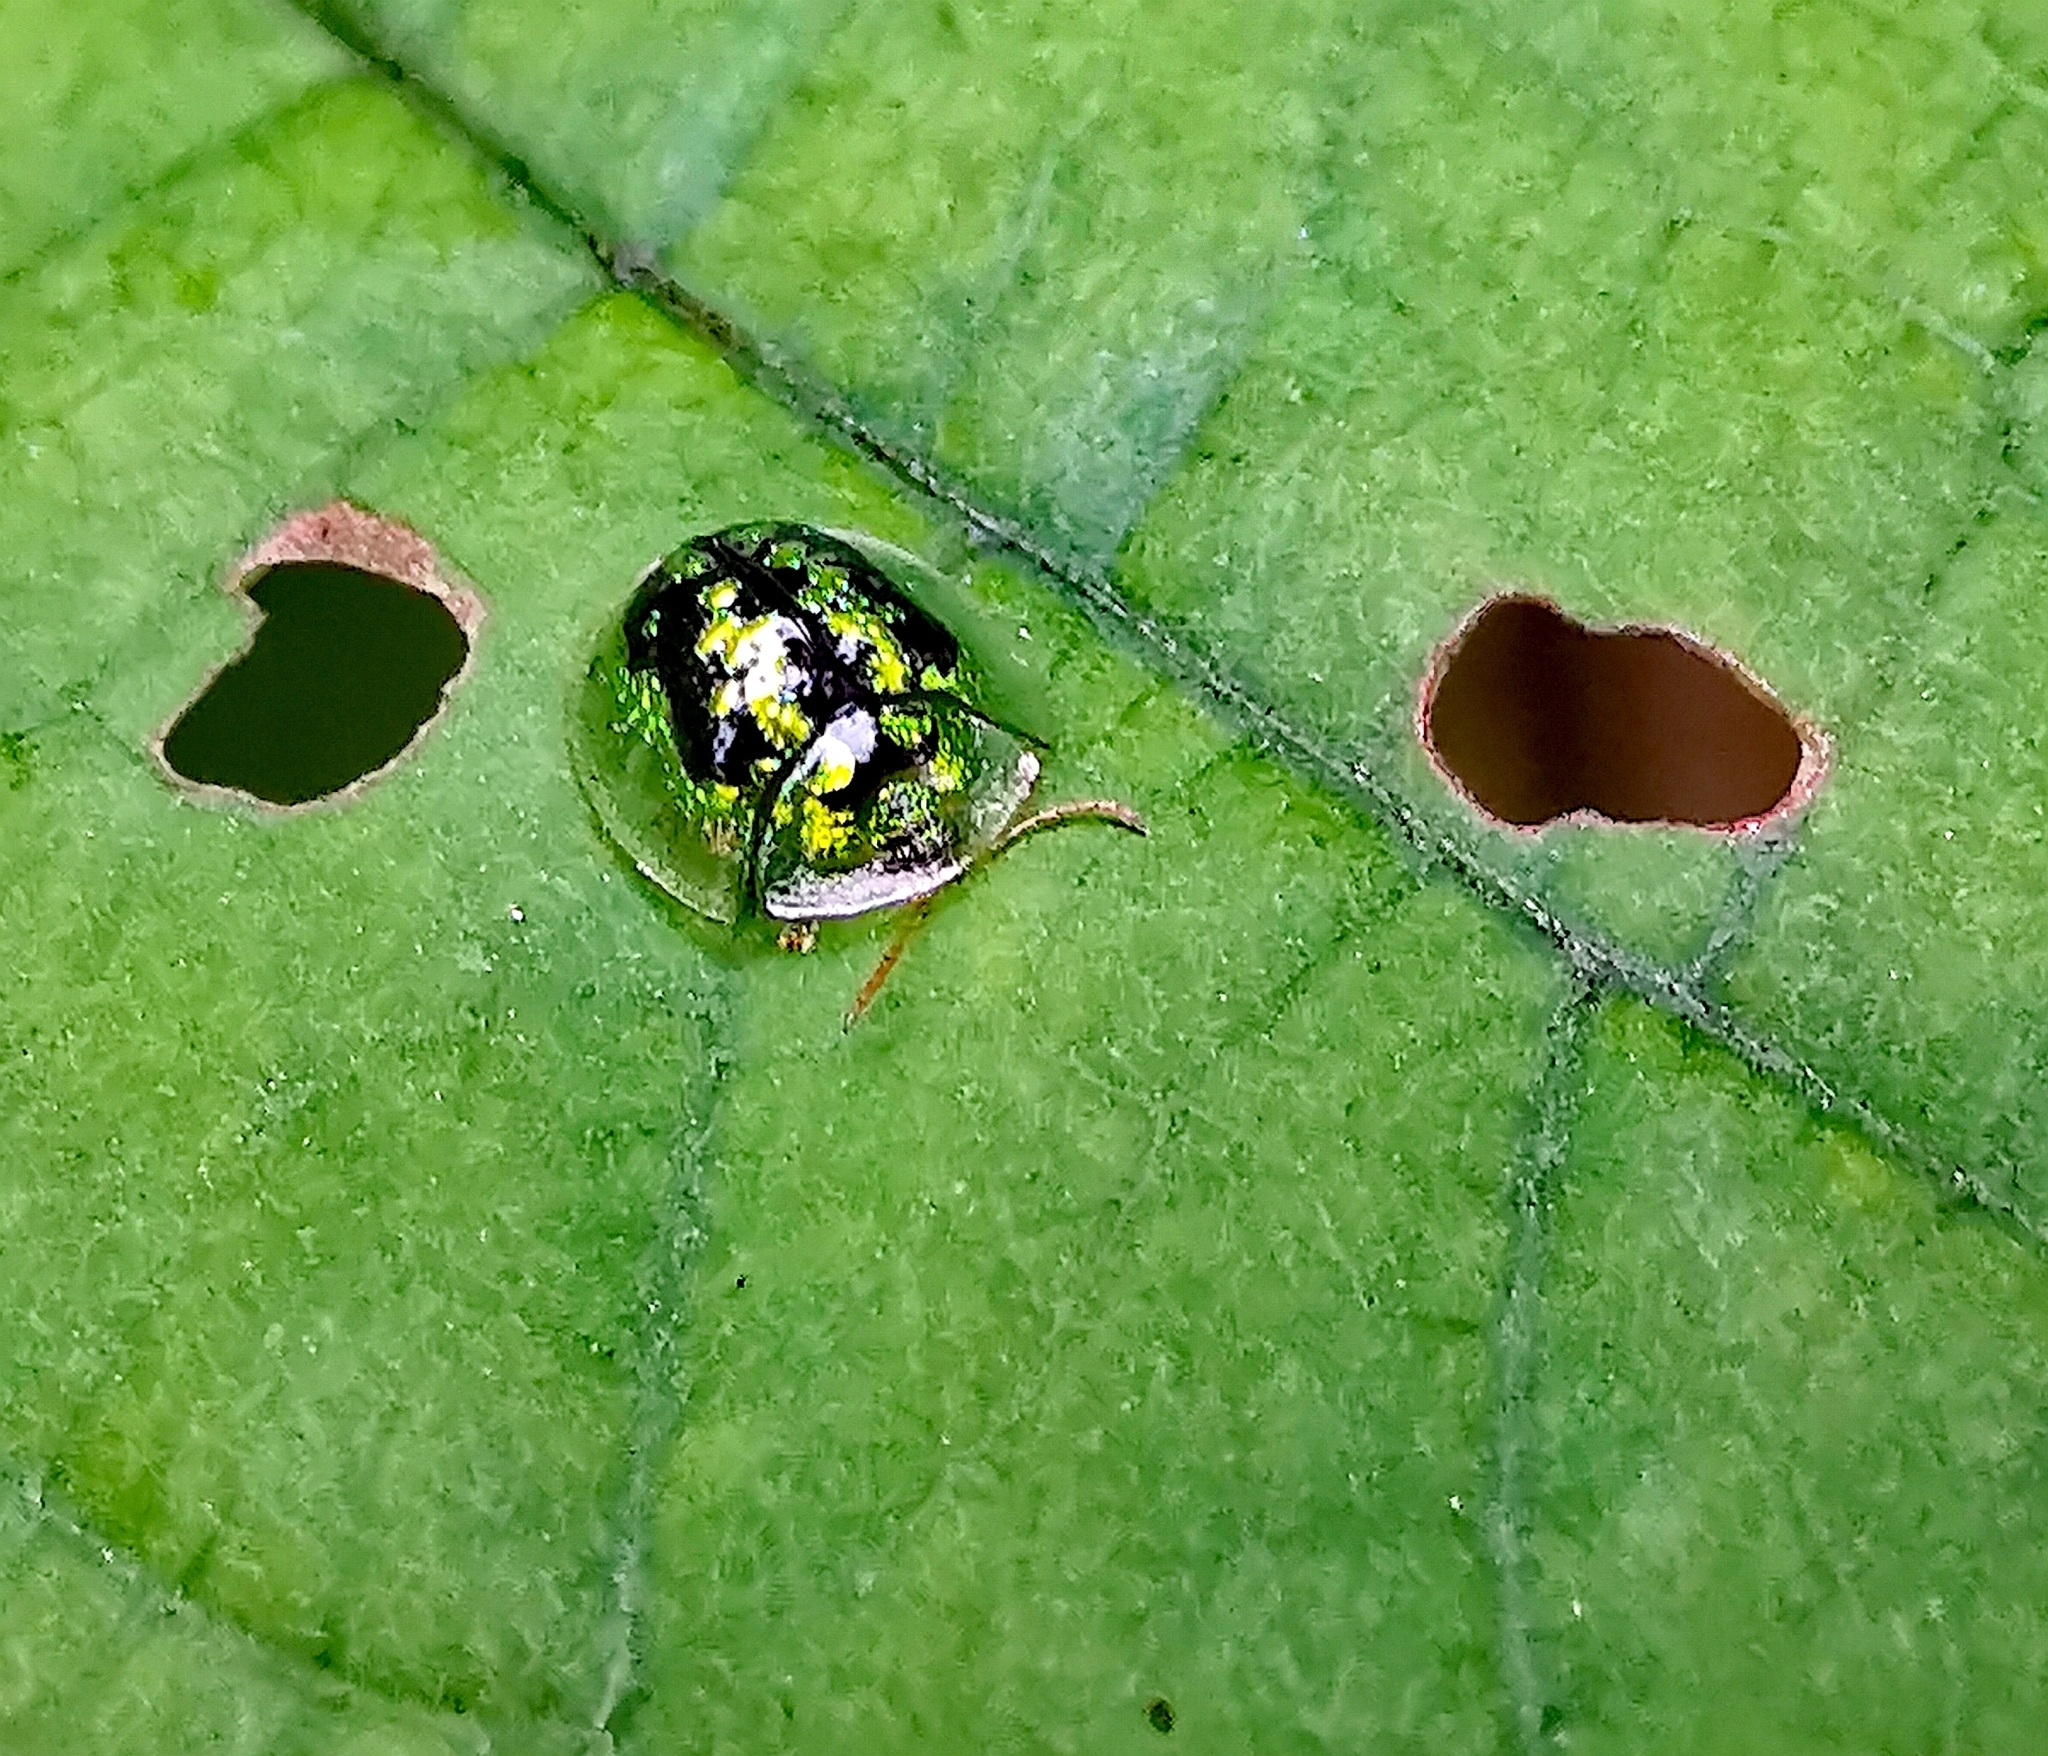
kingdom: Animalia
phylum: Arthropoda
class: Insecta
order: Coleoptera
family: Chrysomelidae
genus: Cassida
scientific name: Cassida circumdata
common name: Tortoise beetle
